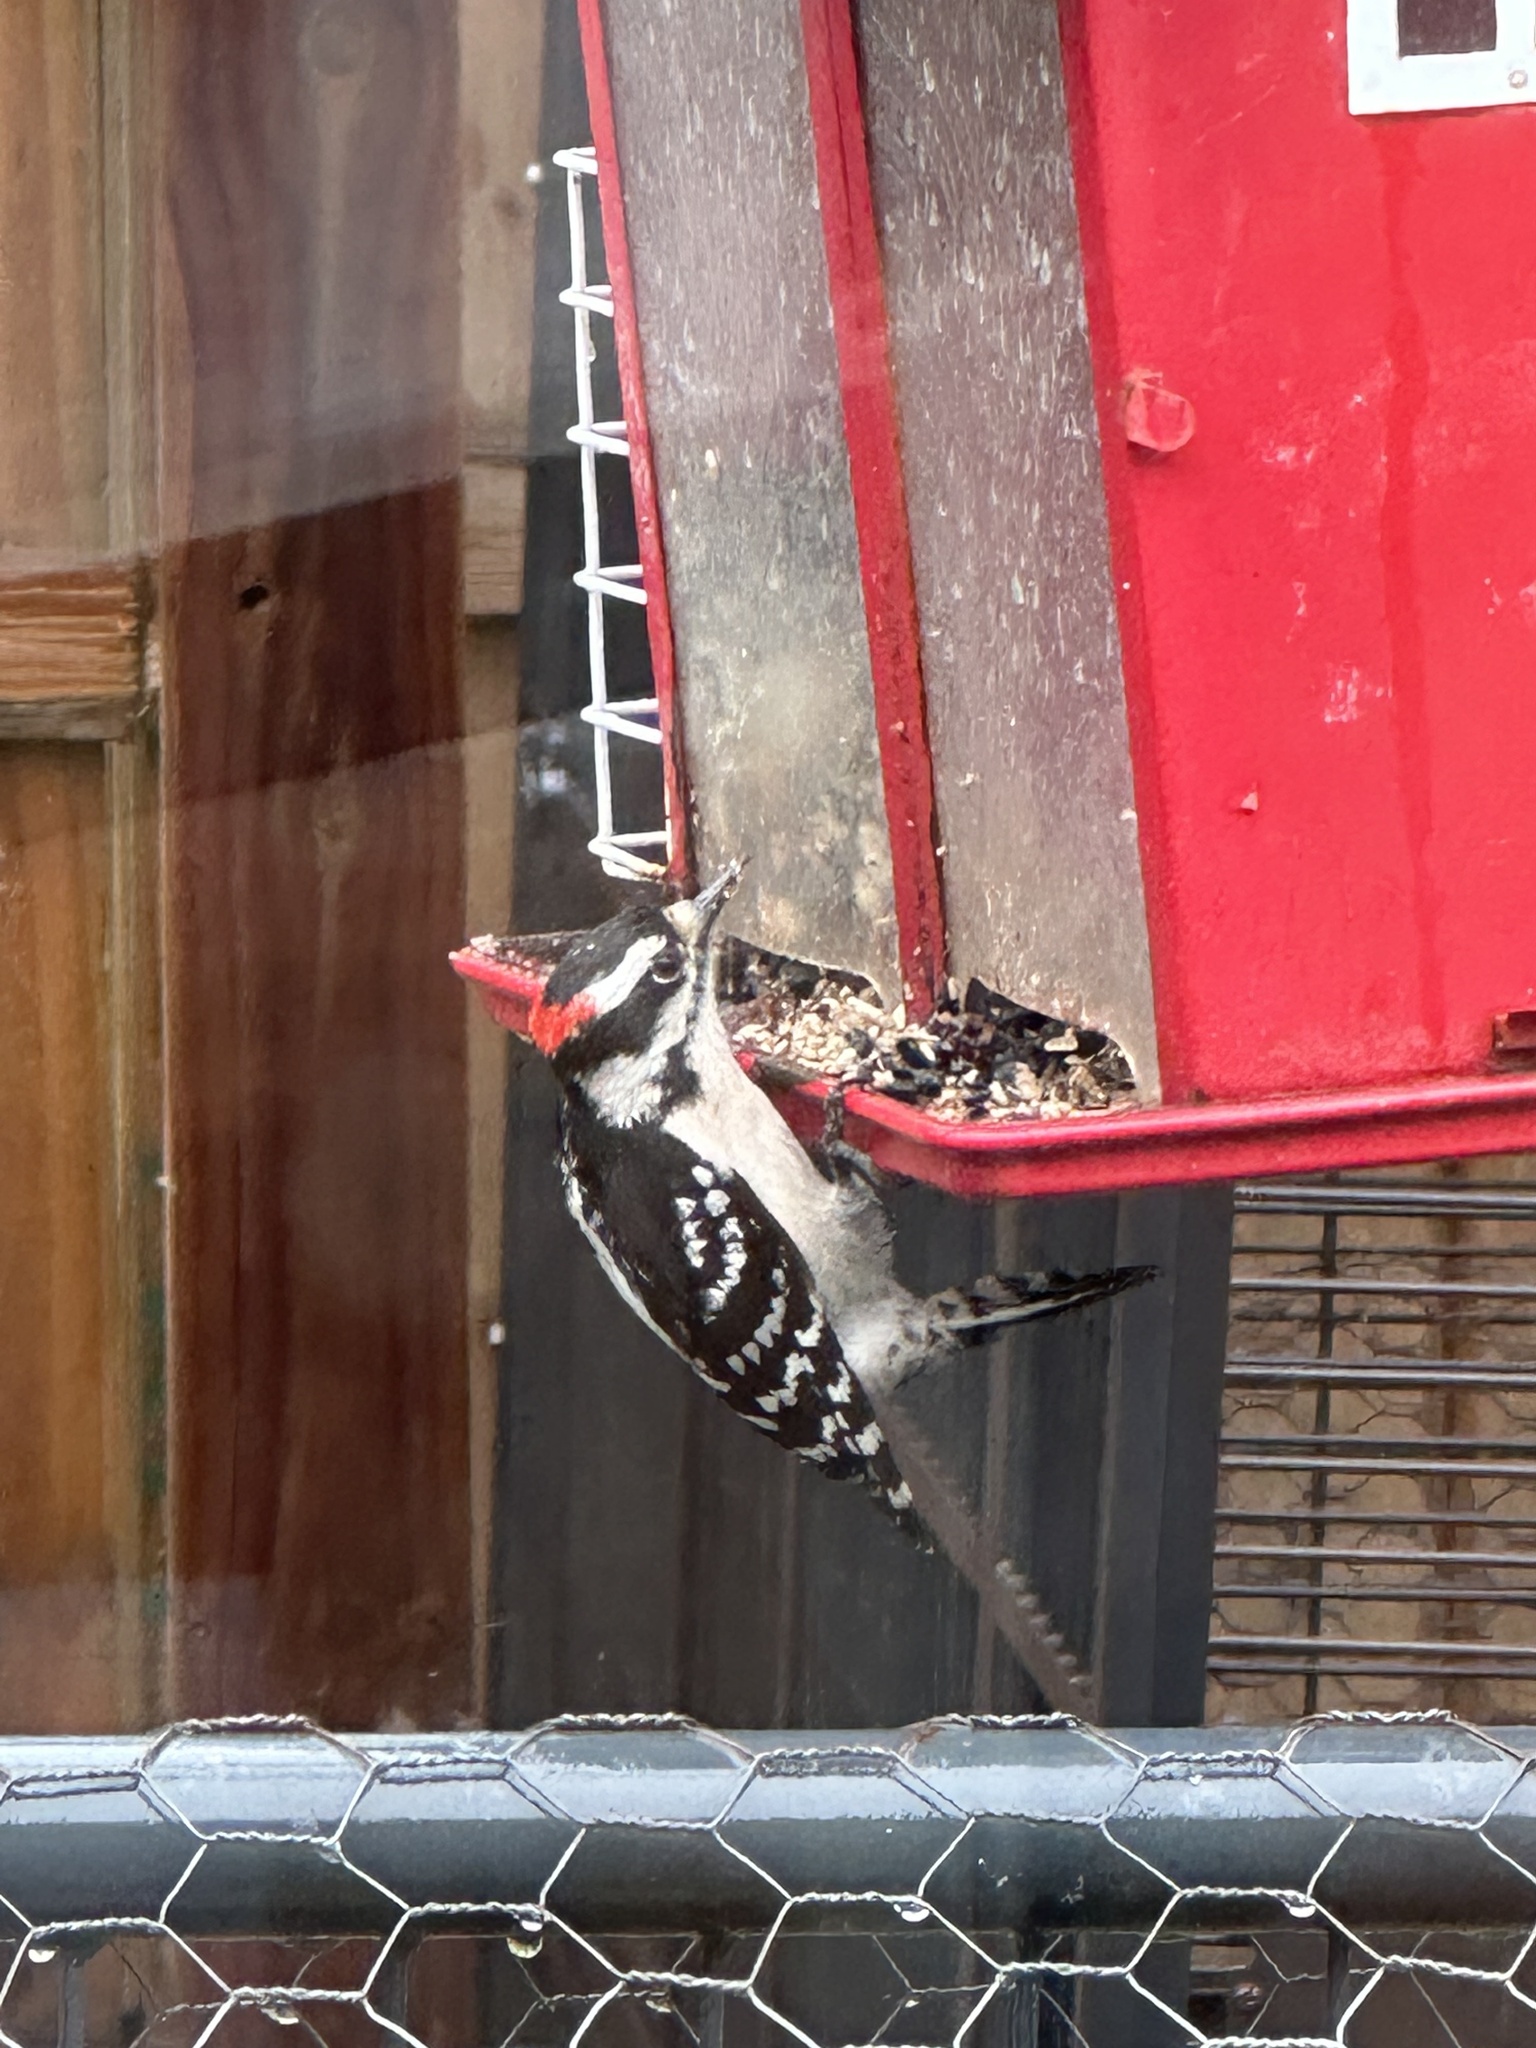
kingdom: Animalia
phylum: Chordata
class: Aves
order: Piciformes
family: Picidae
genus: Dryobates
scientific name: Dryobates pubescens
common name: Downy woodpecker
